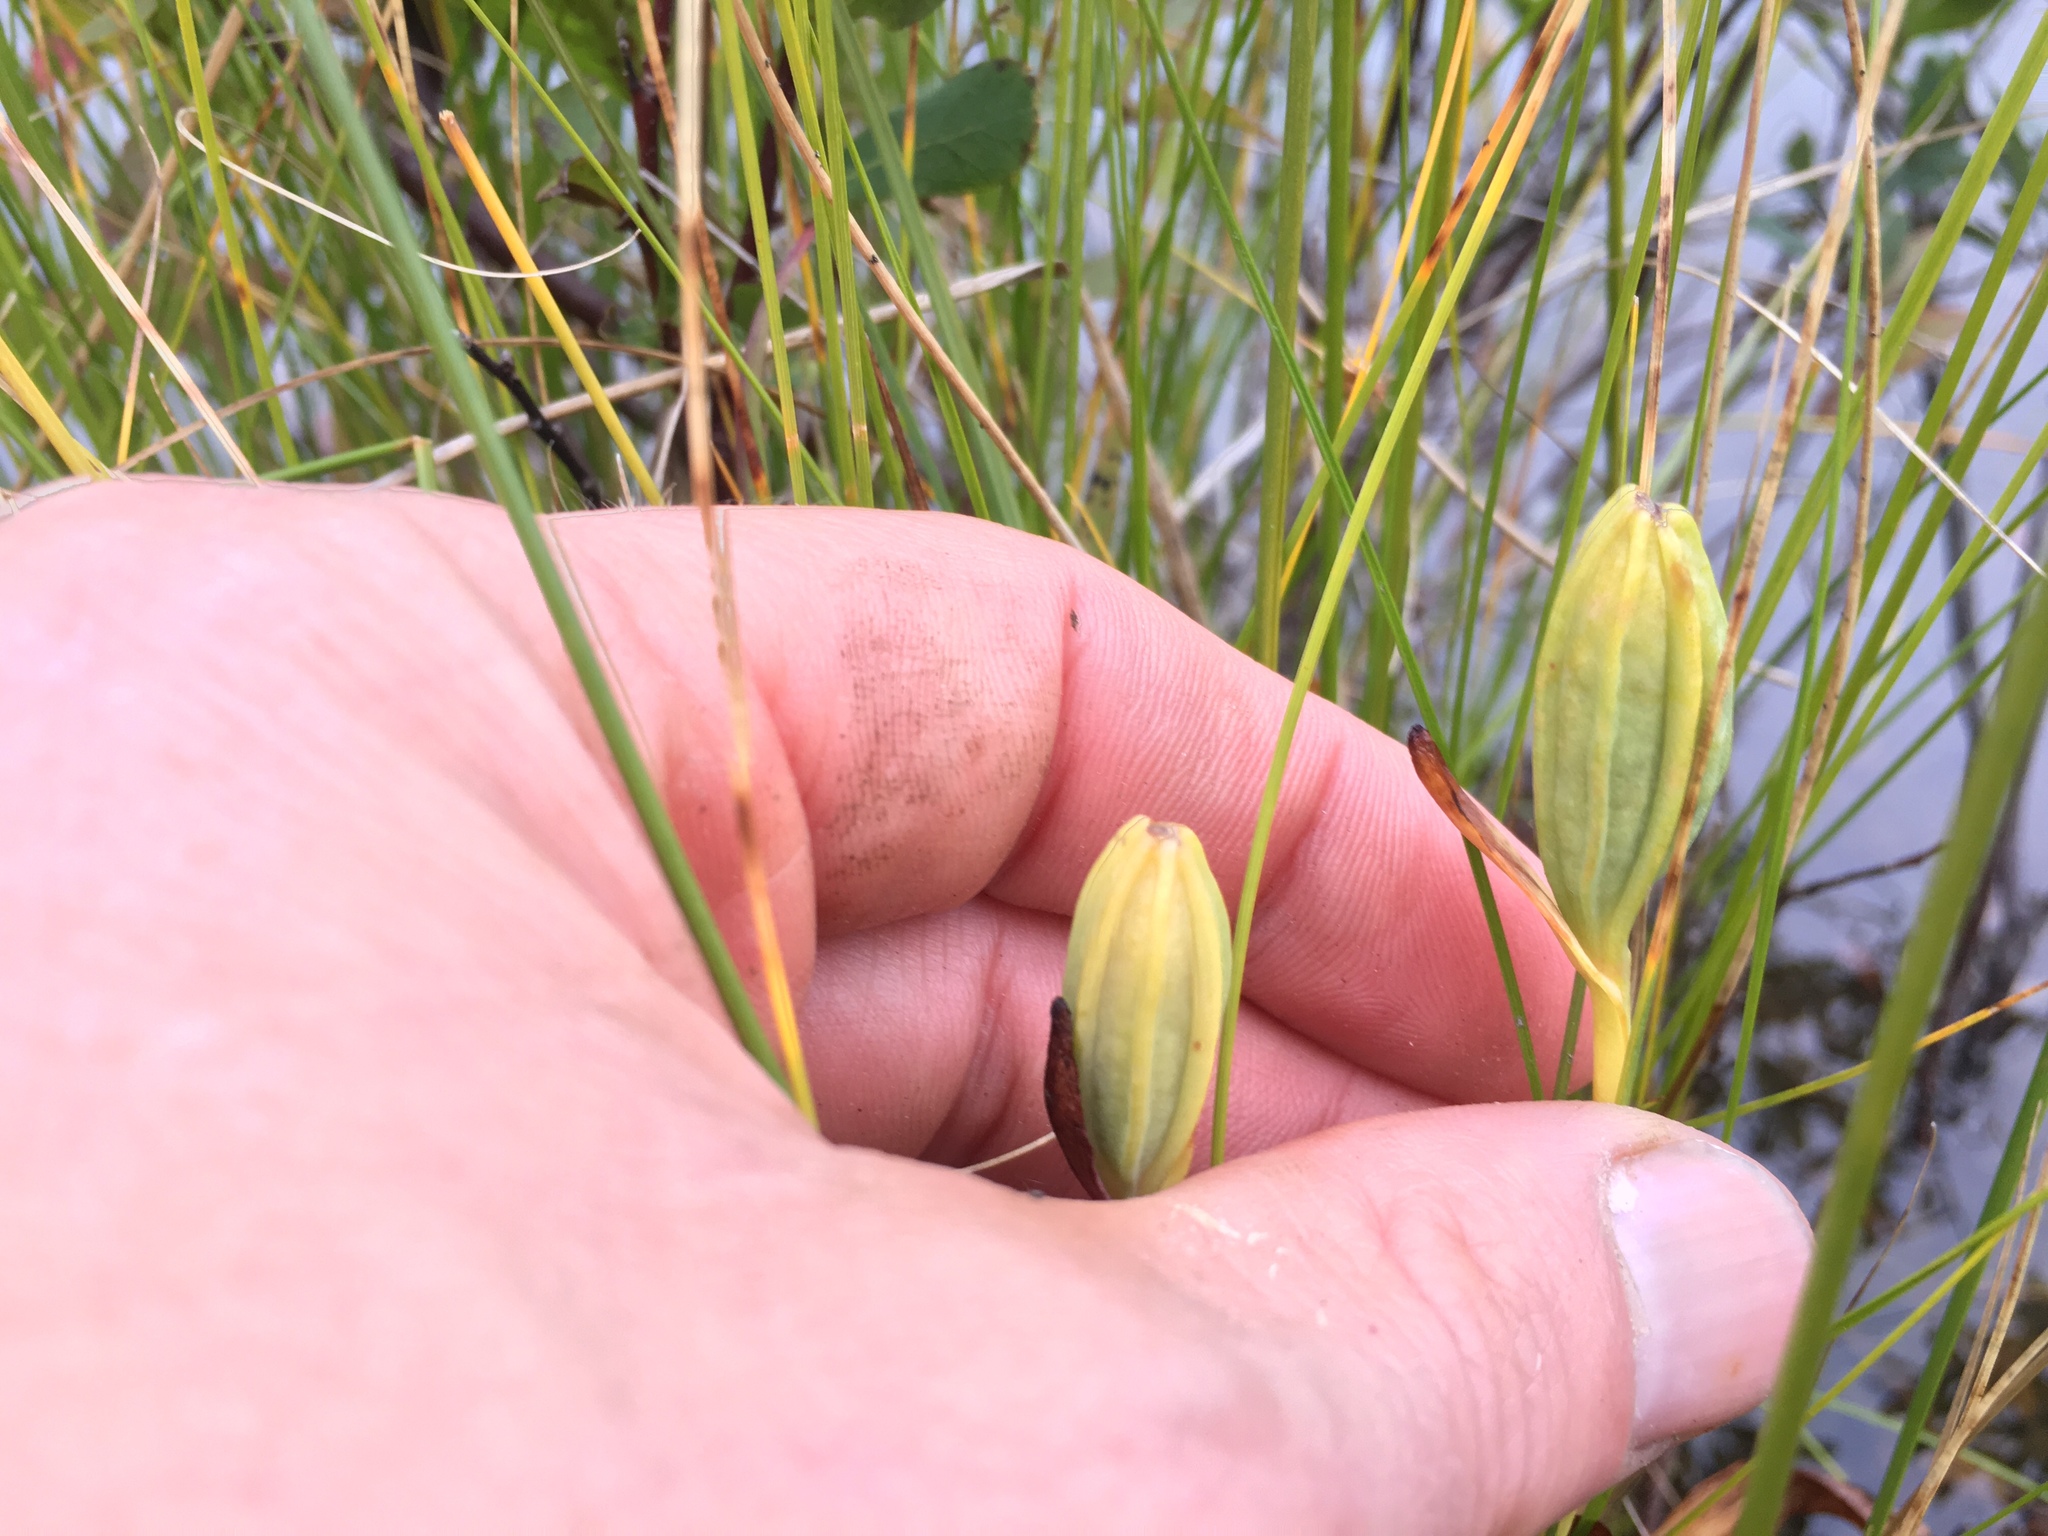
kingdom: Plantae
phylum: Tracheophyta
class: Liliopsida
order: Asparagales
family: Orchidaceae
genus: Pogonia
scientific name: Pogonia ophioglossoides
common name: Rose pogonia
